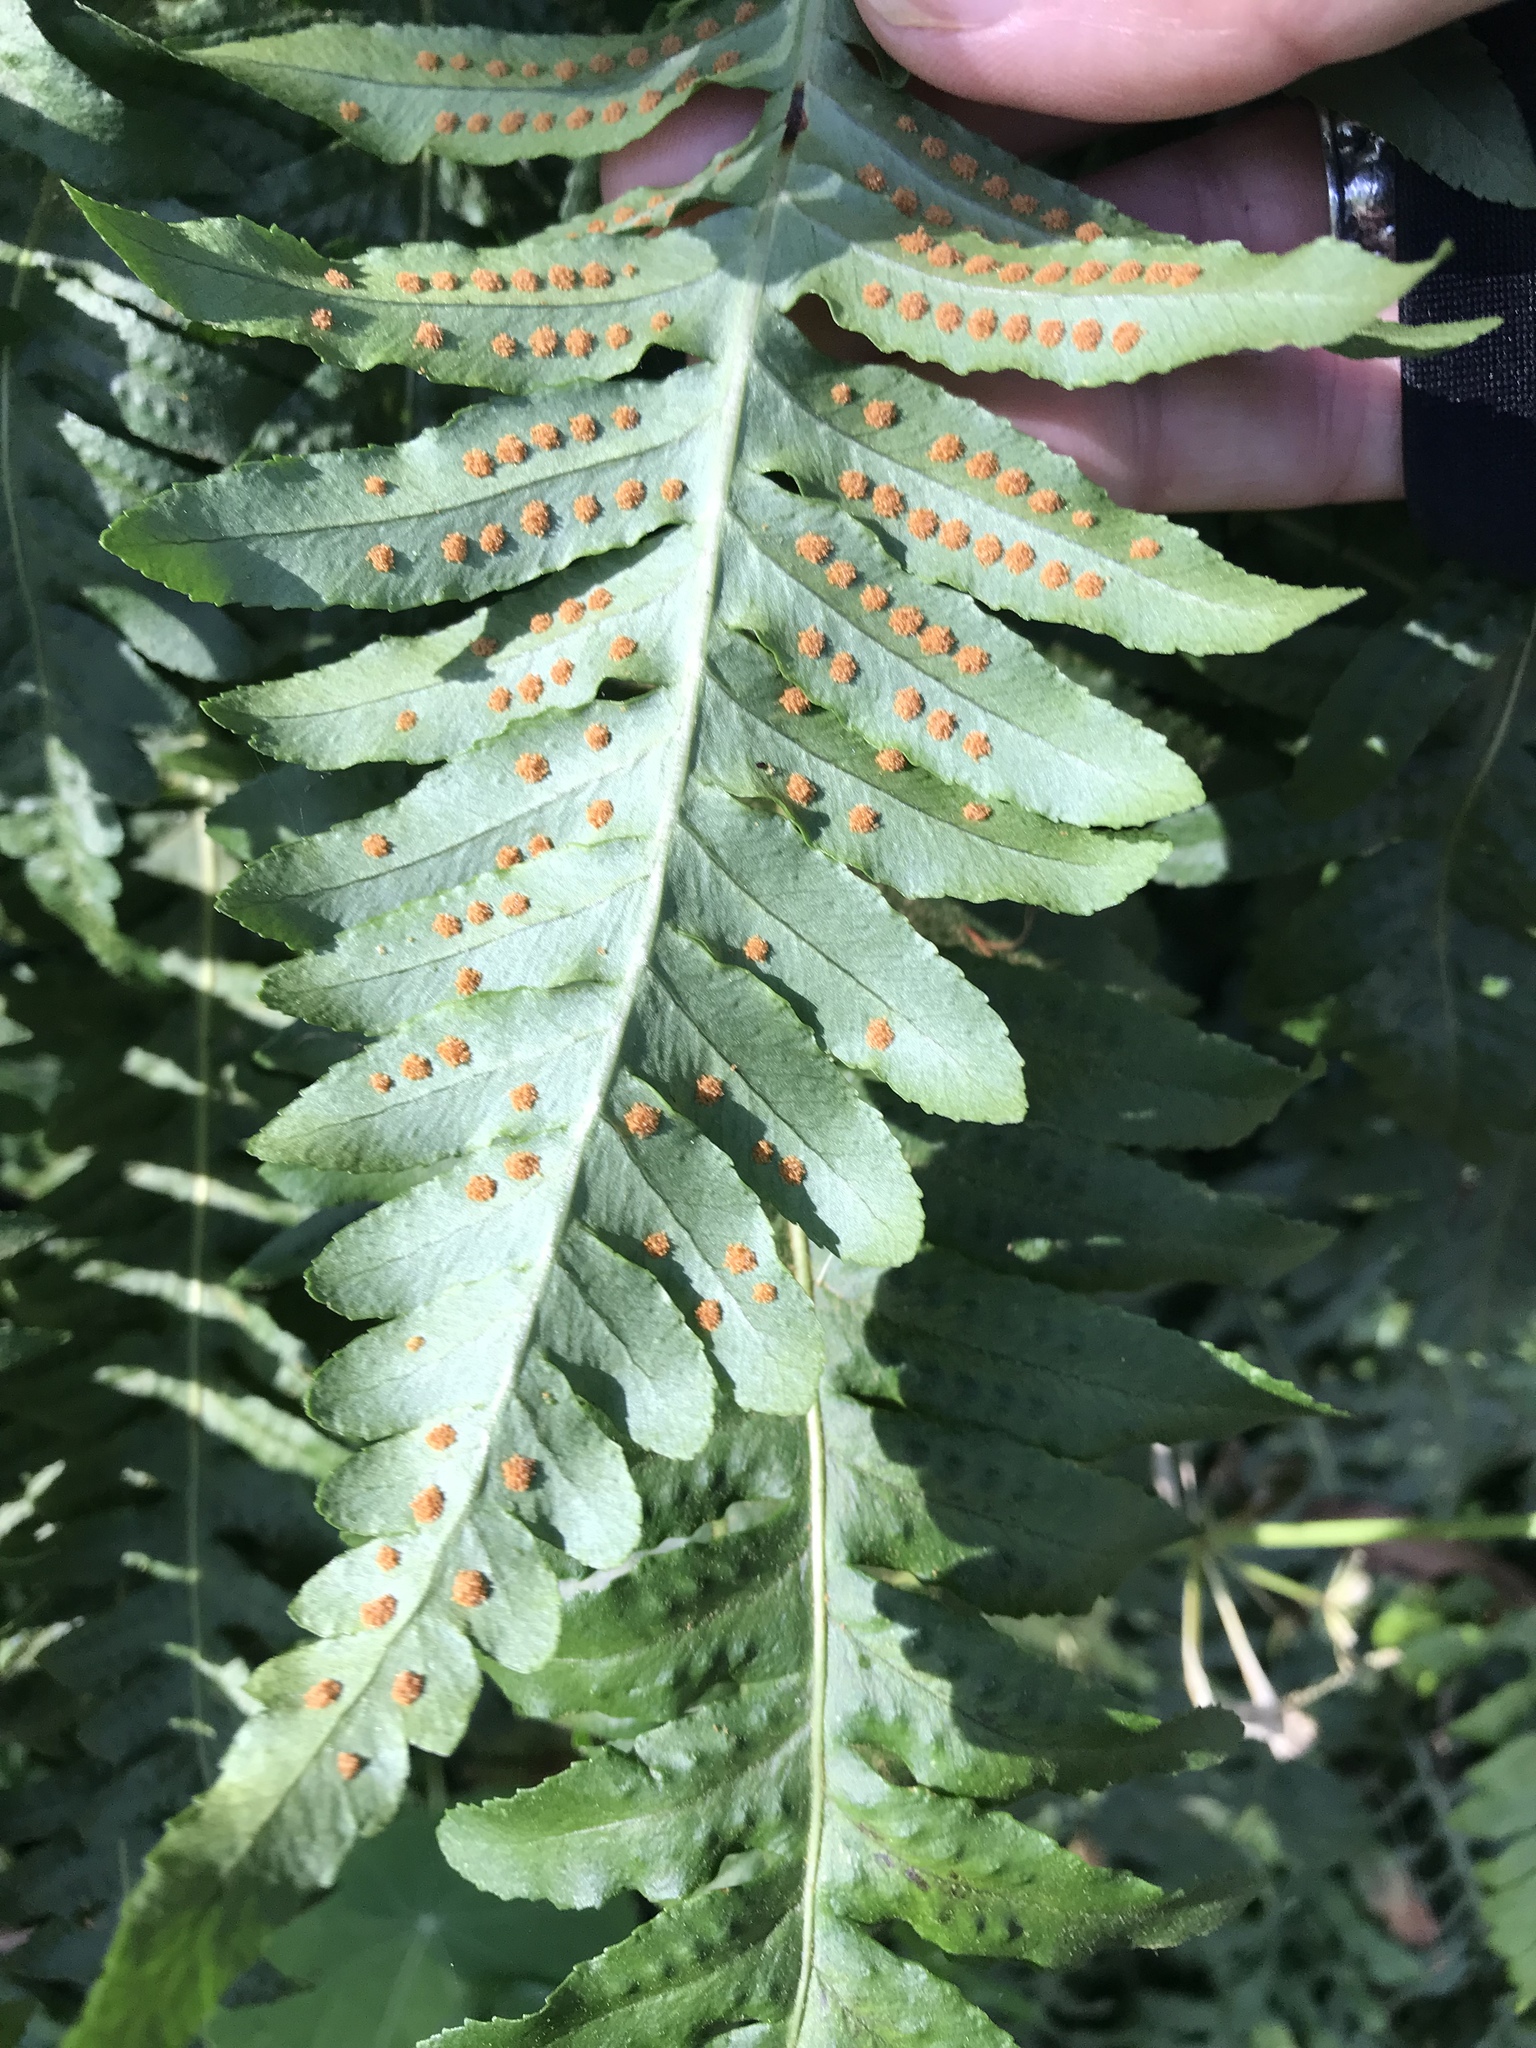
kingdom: Plantae
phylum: Tracheophyta
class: Polypodiopsida
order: Polypodiales
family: Polypodiaceae
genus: Polypodium
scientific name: Polypodium californicum
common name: California polypody
